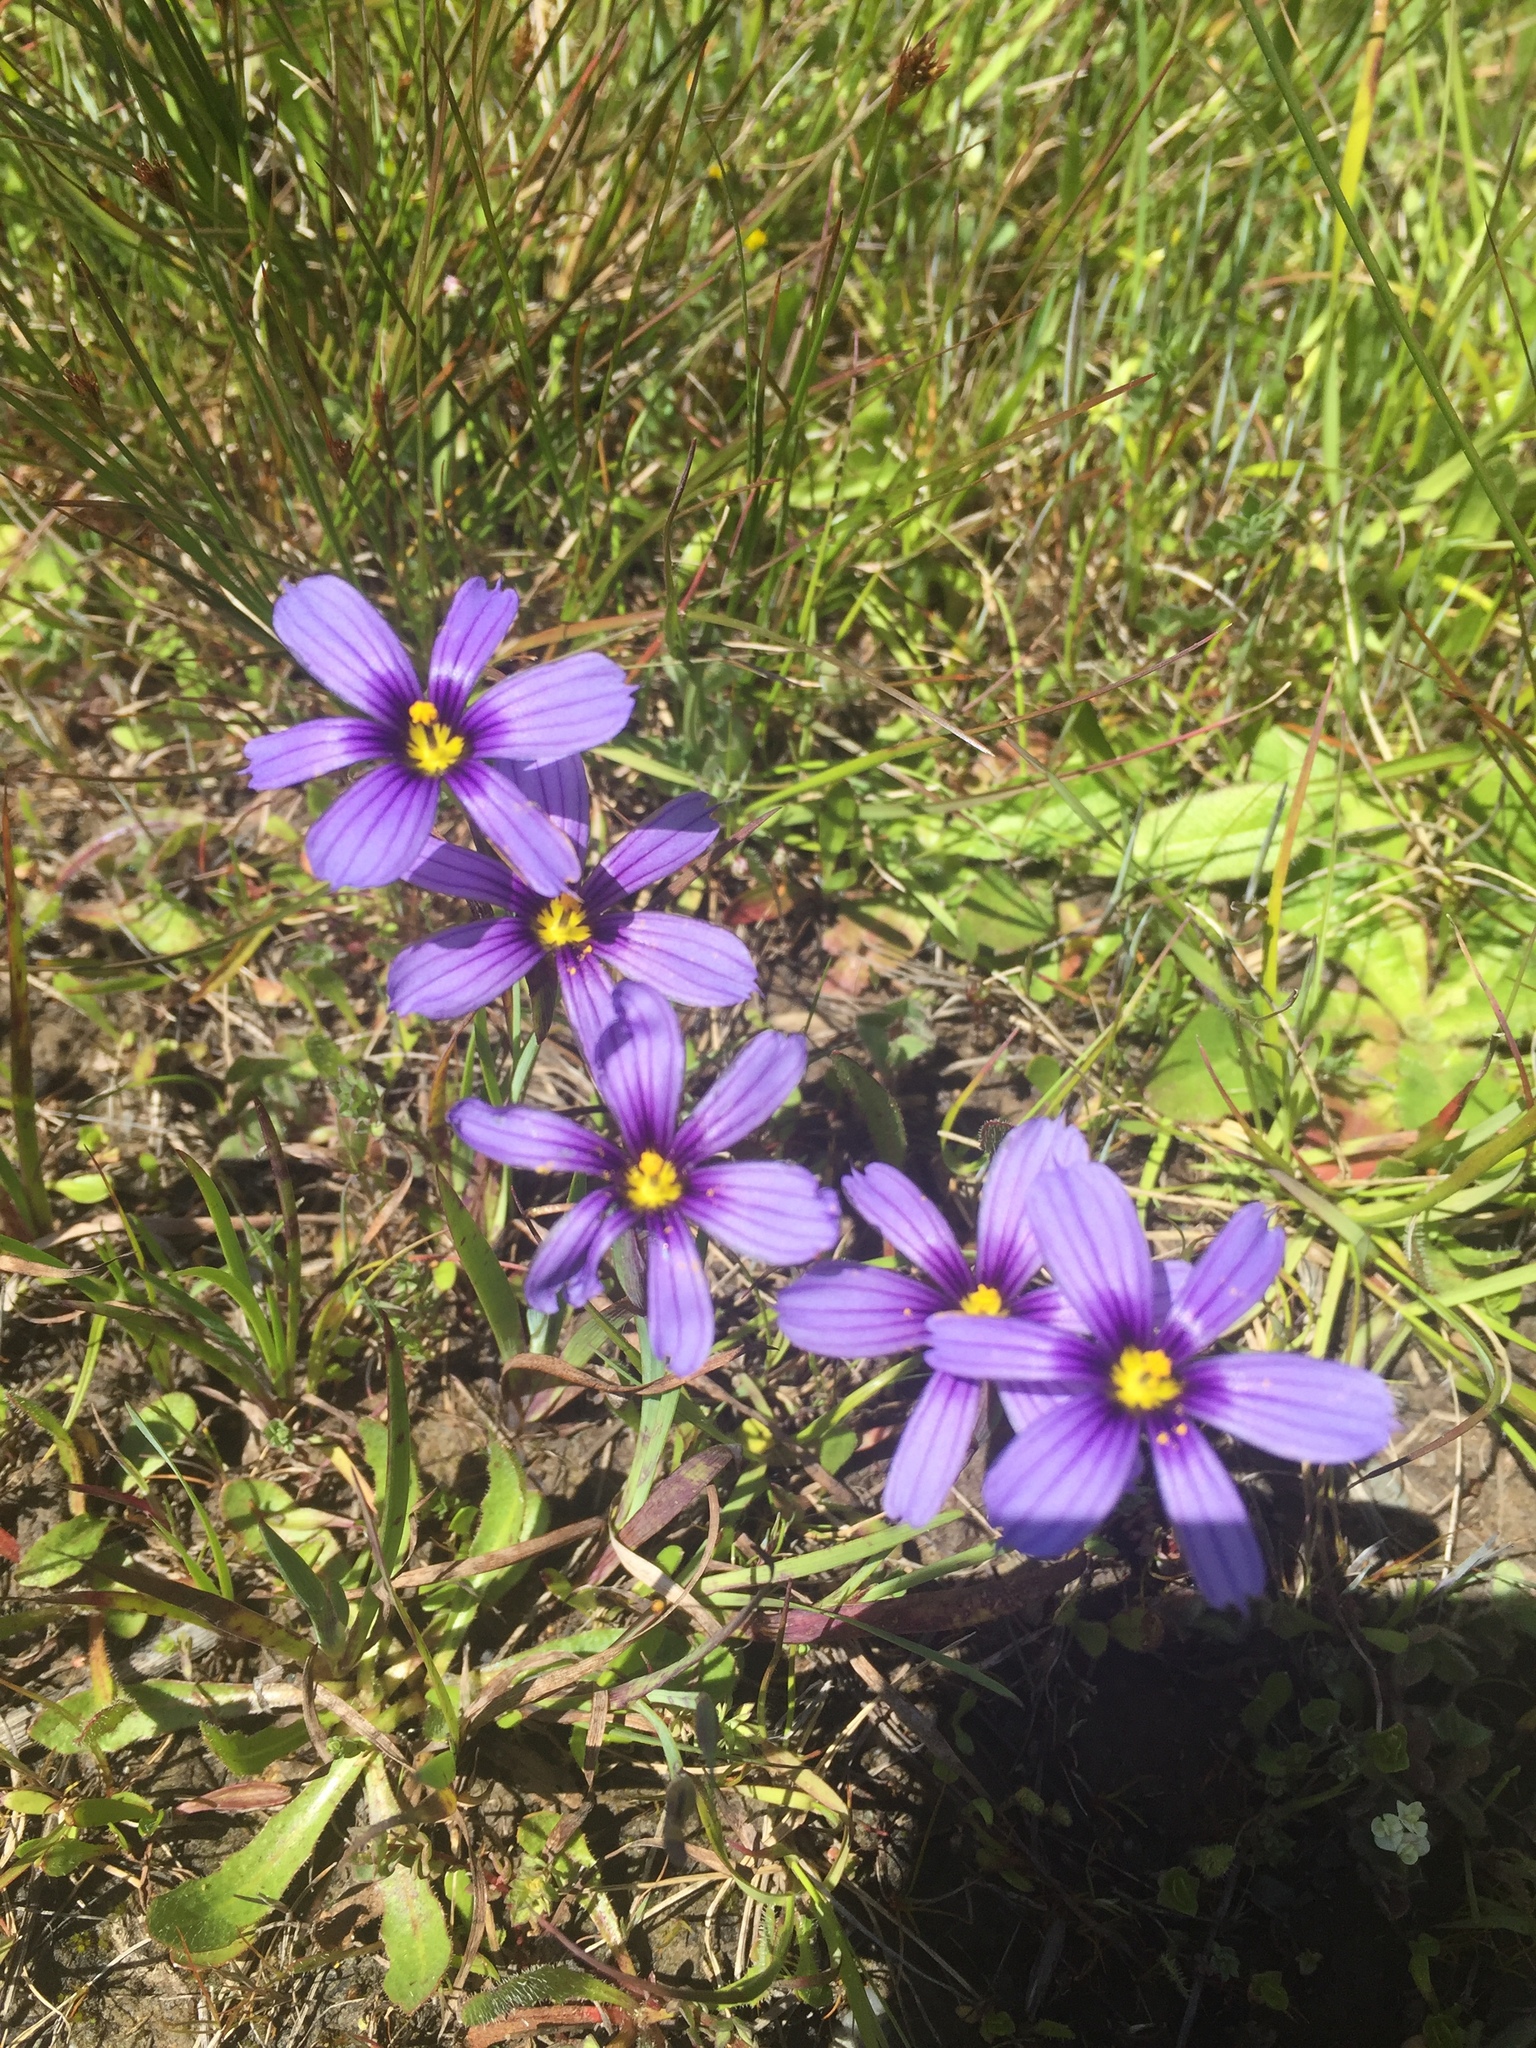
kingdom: Plantae
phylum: Tracheophyta
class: Liliopsida
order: Asparagales
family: Iridaceae
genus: Sisyrinchium
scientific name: Sisyrinchium bellum
